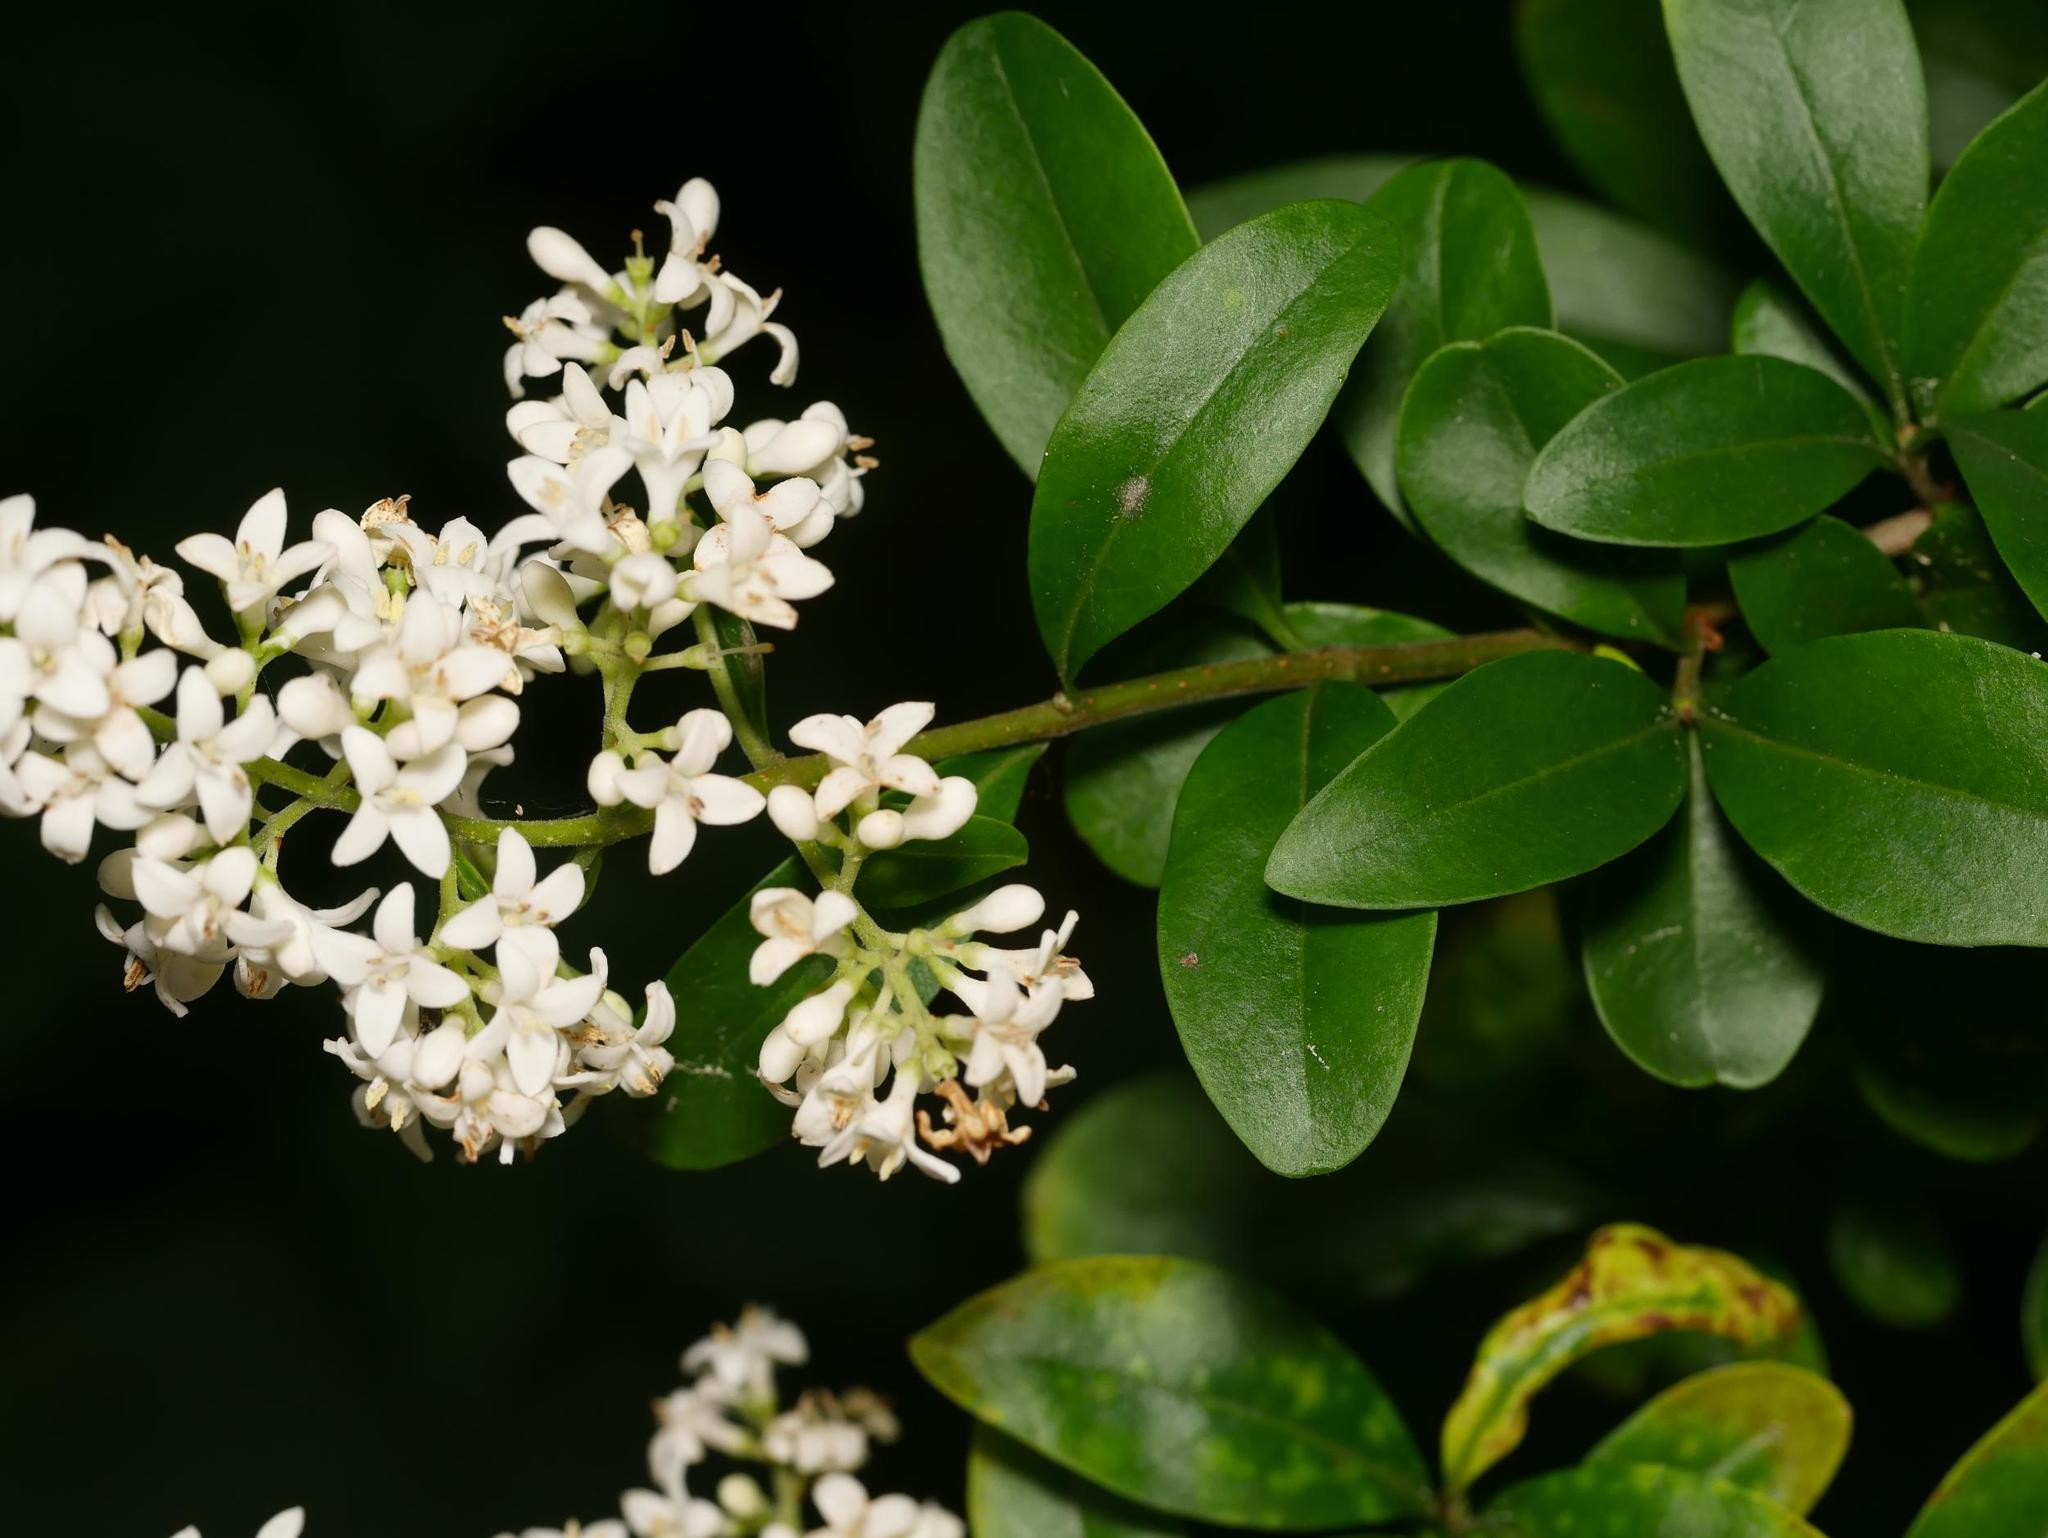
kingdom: Plantae
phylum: Tracheophyta
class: Magnoliopsida
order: Lamiales
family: Oleaceae
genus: Ligustrum
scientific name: Ligustrum vulgare
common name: Wild privet
